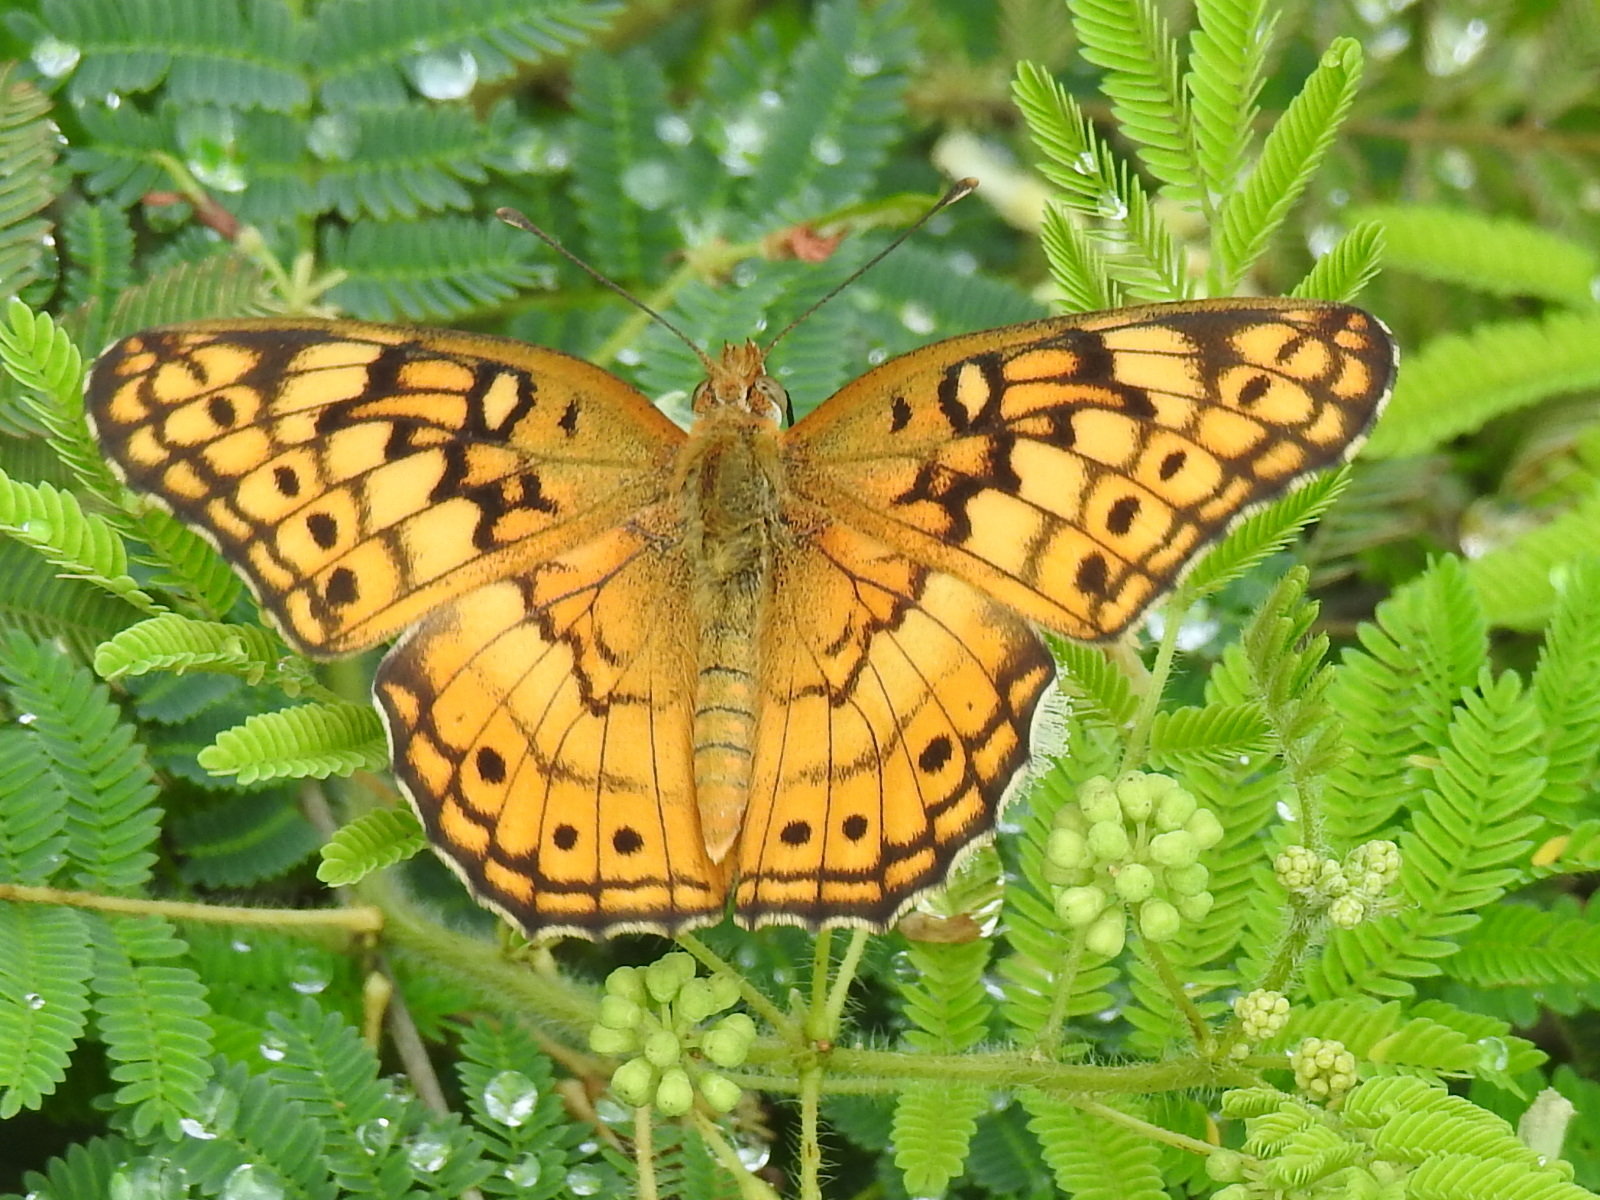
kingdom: Animalia
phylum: Arthropoda
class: Insecta
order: Lepidoptera
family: Nymphalidae
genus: Euptoieta
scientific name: Euptoieta claudia
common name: Variegated fritillary
